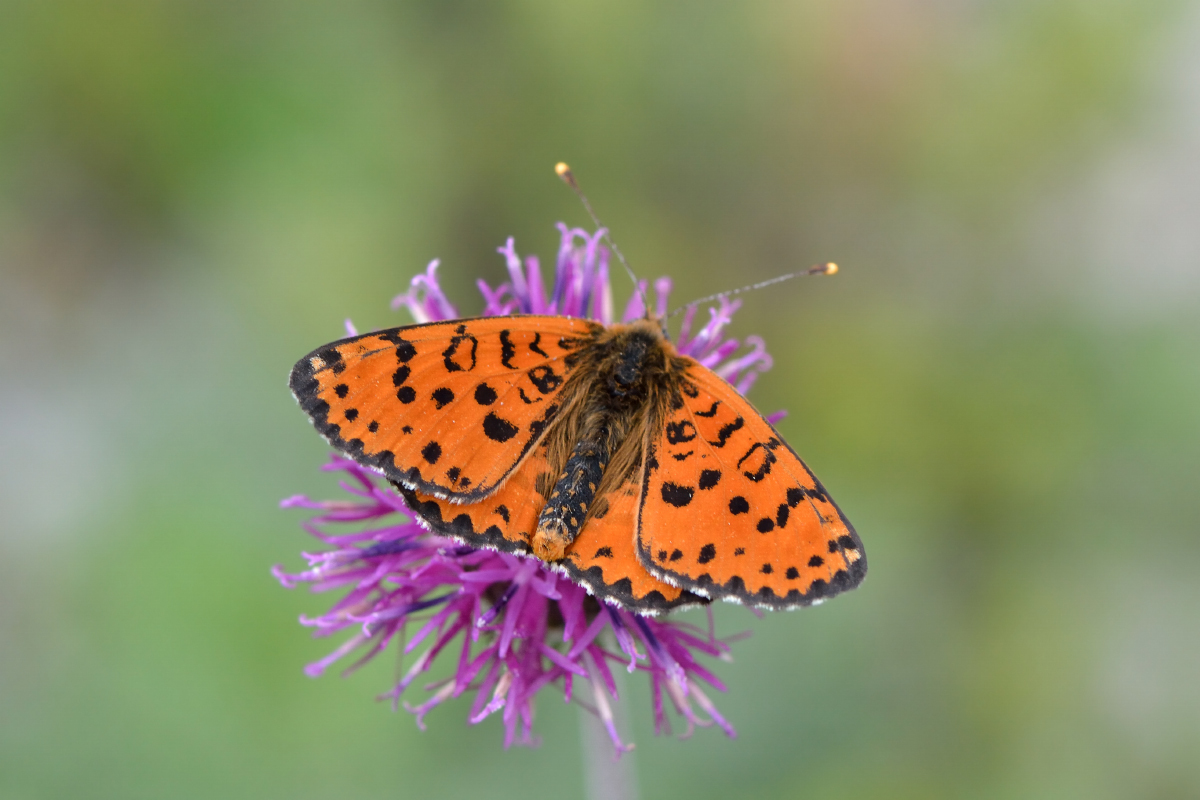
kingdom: Animalia
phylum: Arthropoda
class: Insecta
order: Lepidoptera
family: Nymphalidae
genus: Melitaea
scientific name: Melitaea didyma
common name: Spotted fritillary
